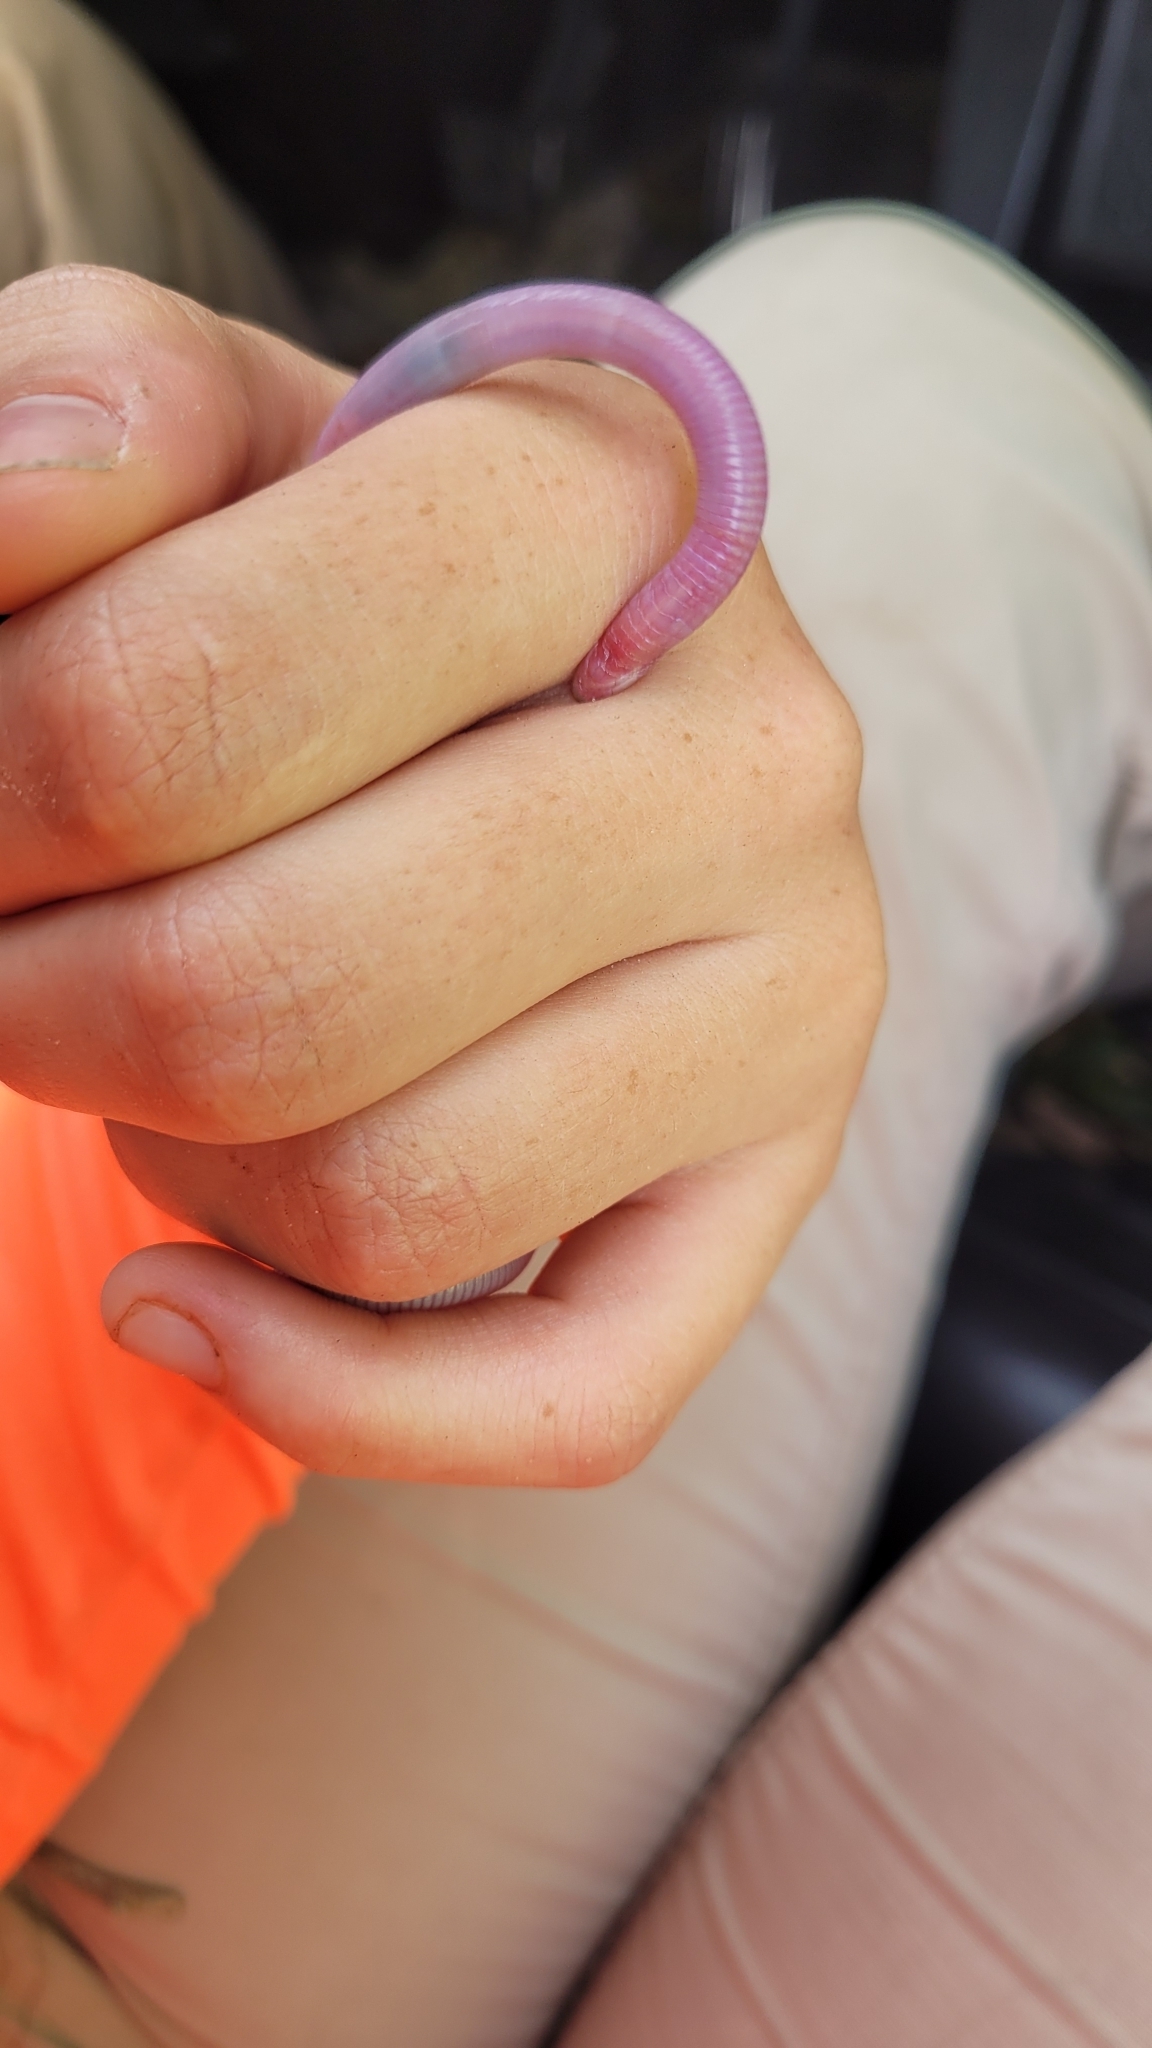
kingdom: Animalia
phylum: Chordata
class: Squamata
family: Rhineuridae
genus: Rhineura
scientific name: Rhineura floridana
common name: Florida worm lizard
